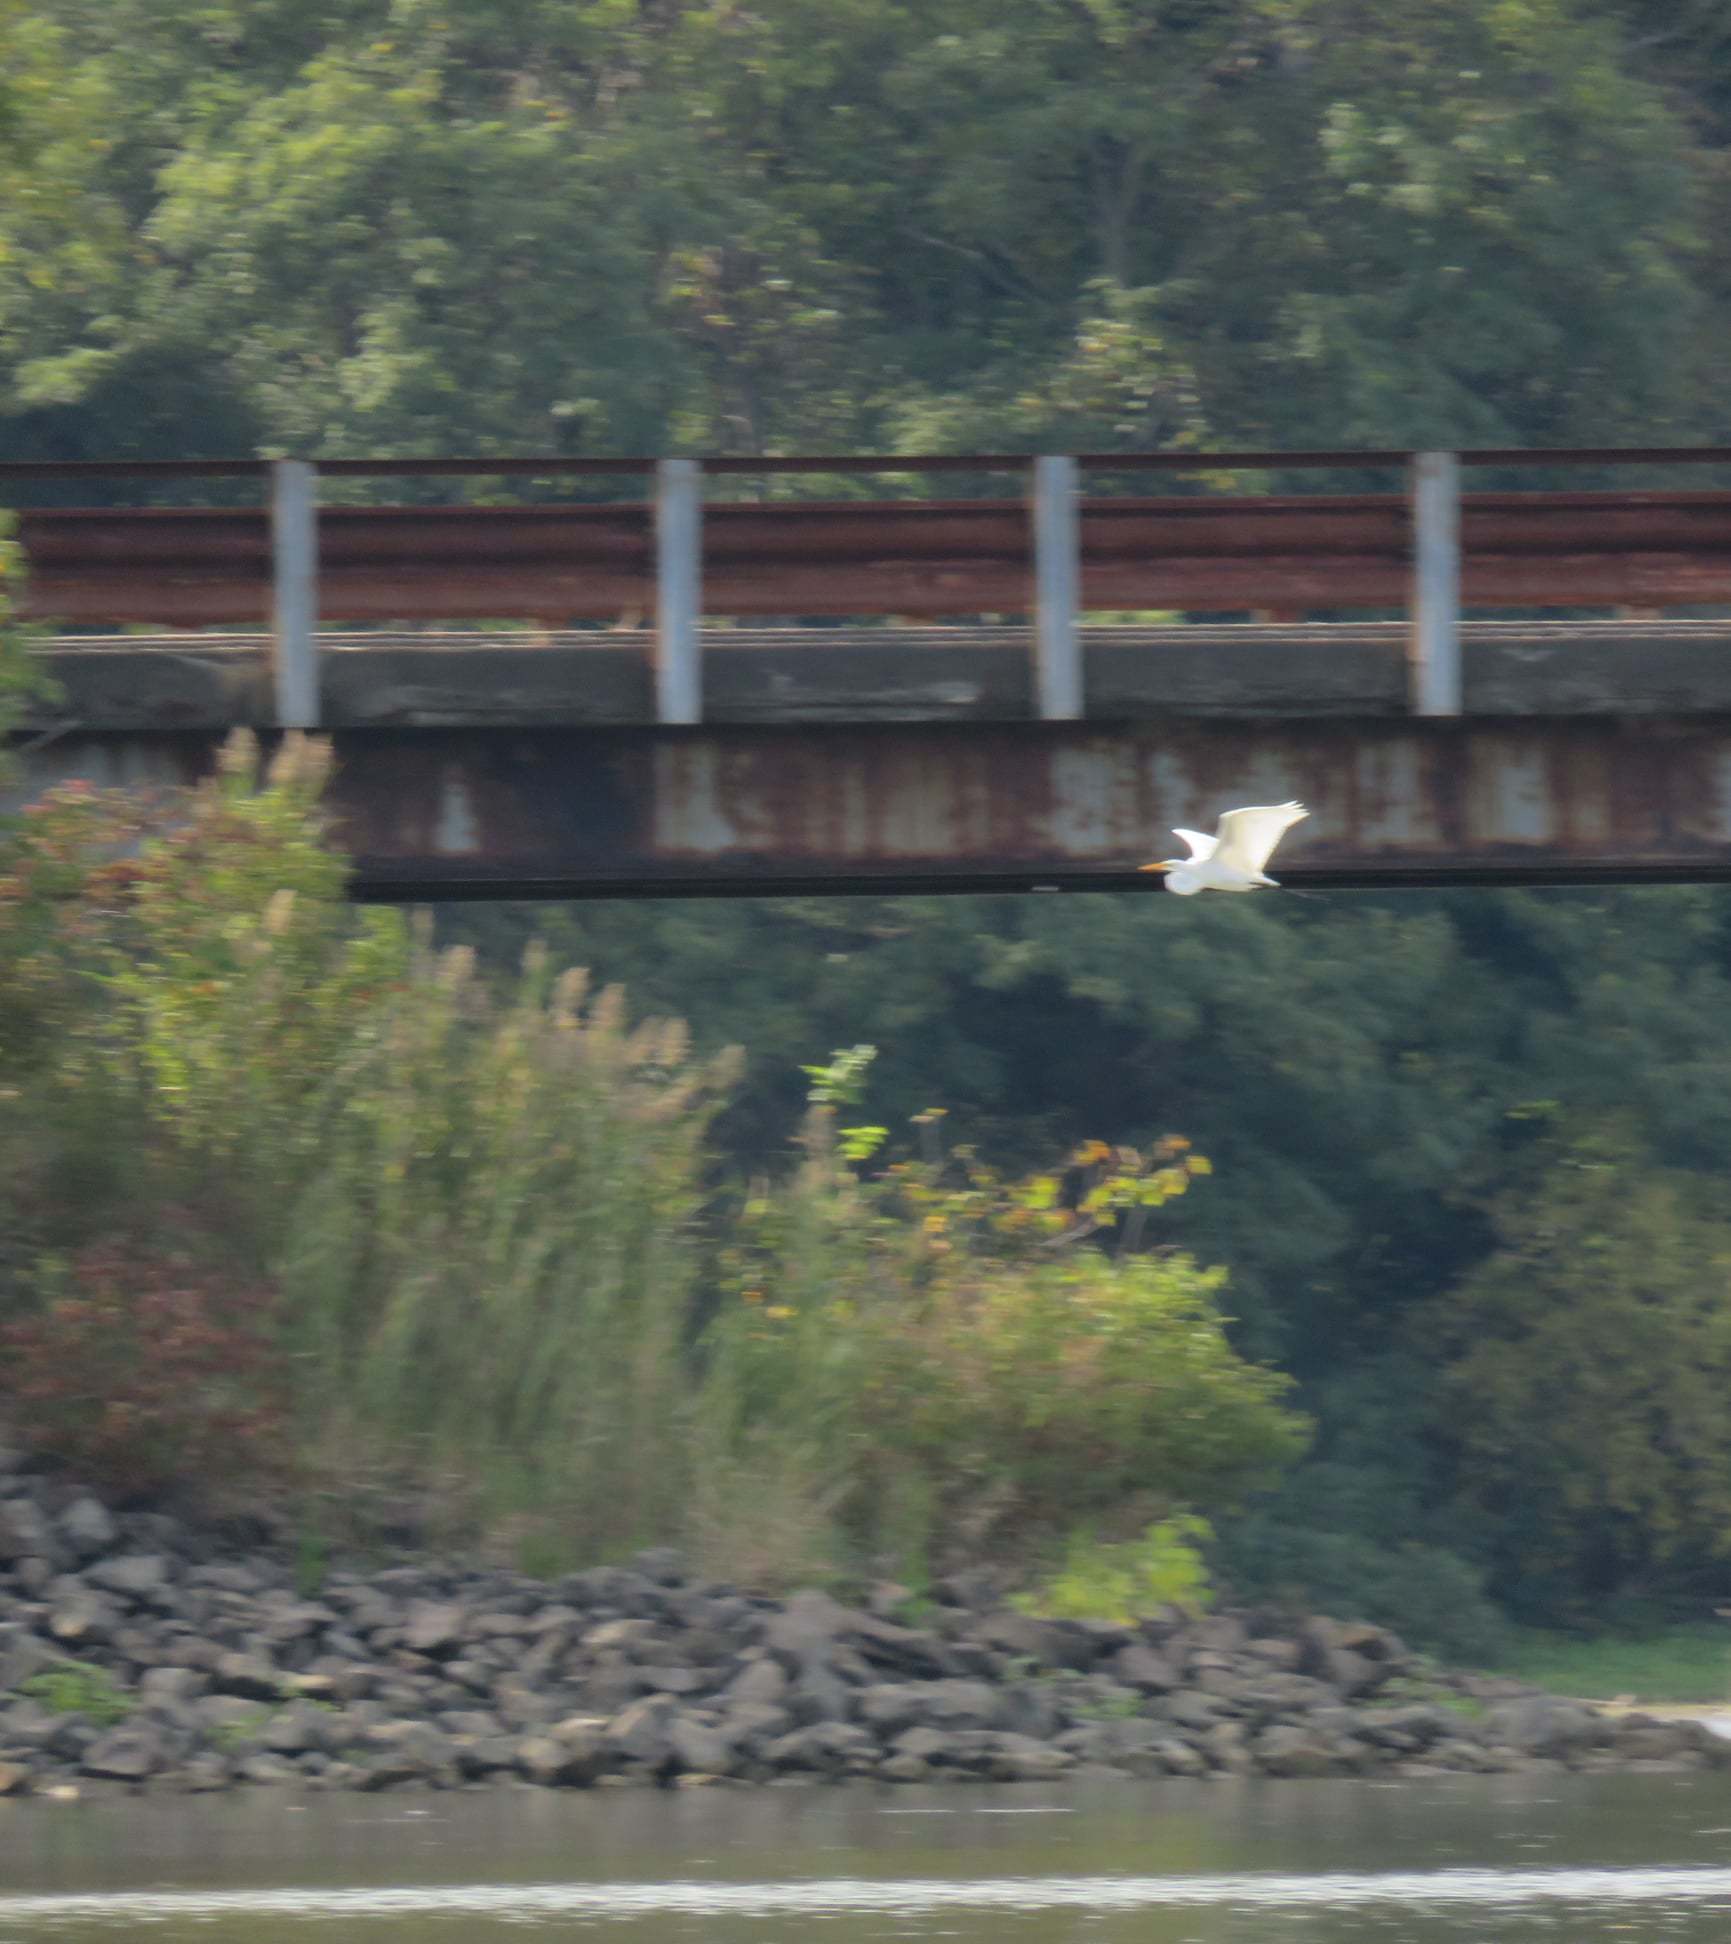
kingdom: Animalia
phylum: Chordata
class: Aves
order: Pelecaniformes
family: Ardeidae
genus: Ardea
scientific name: Ardea alba
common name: Great egret
